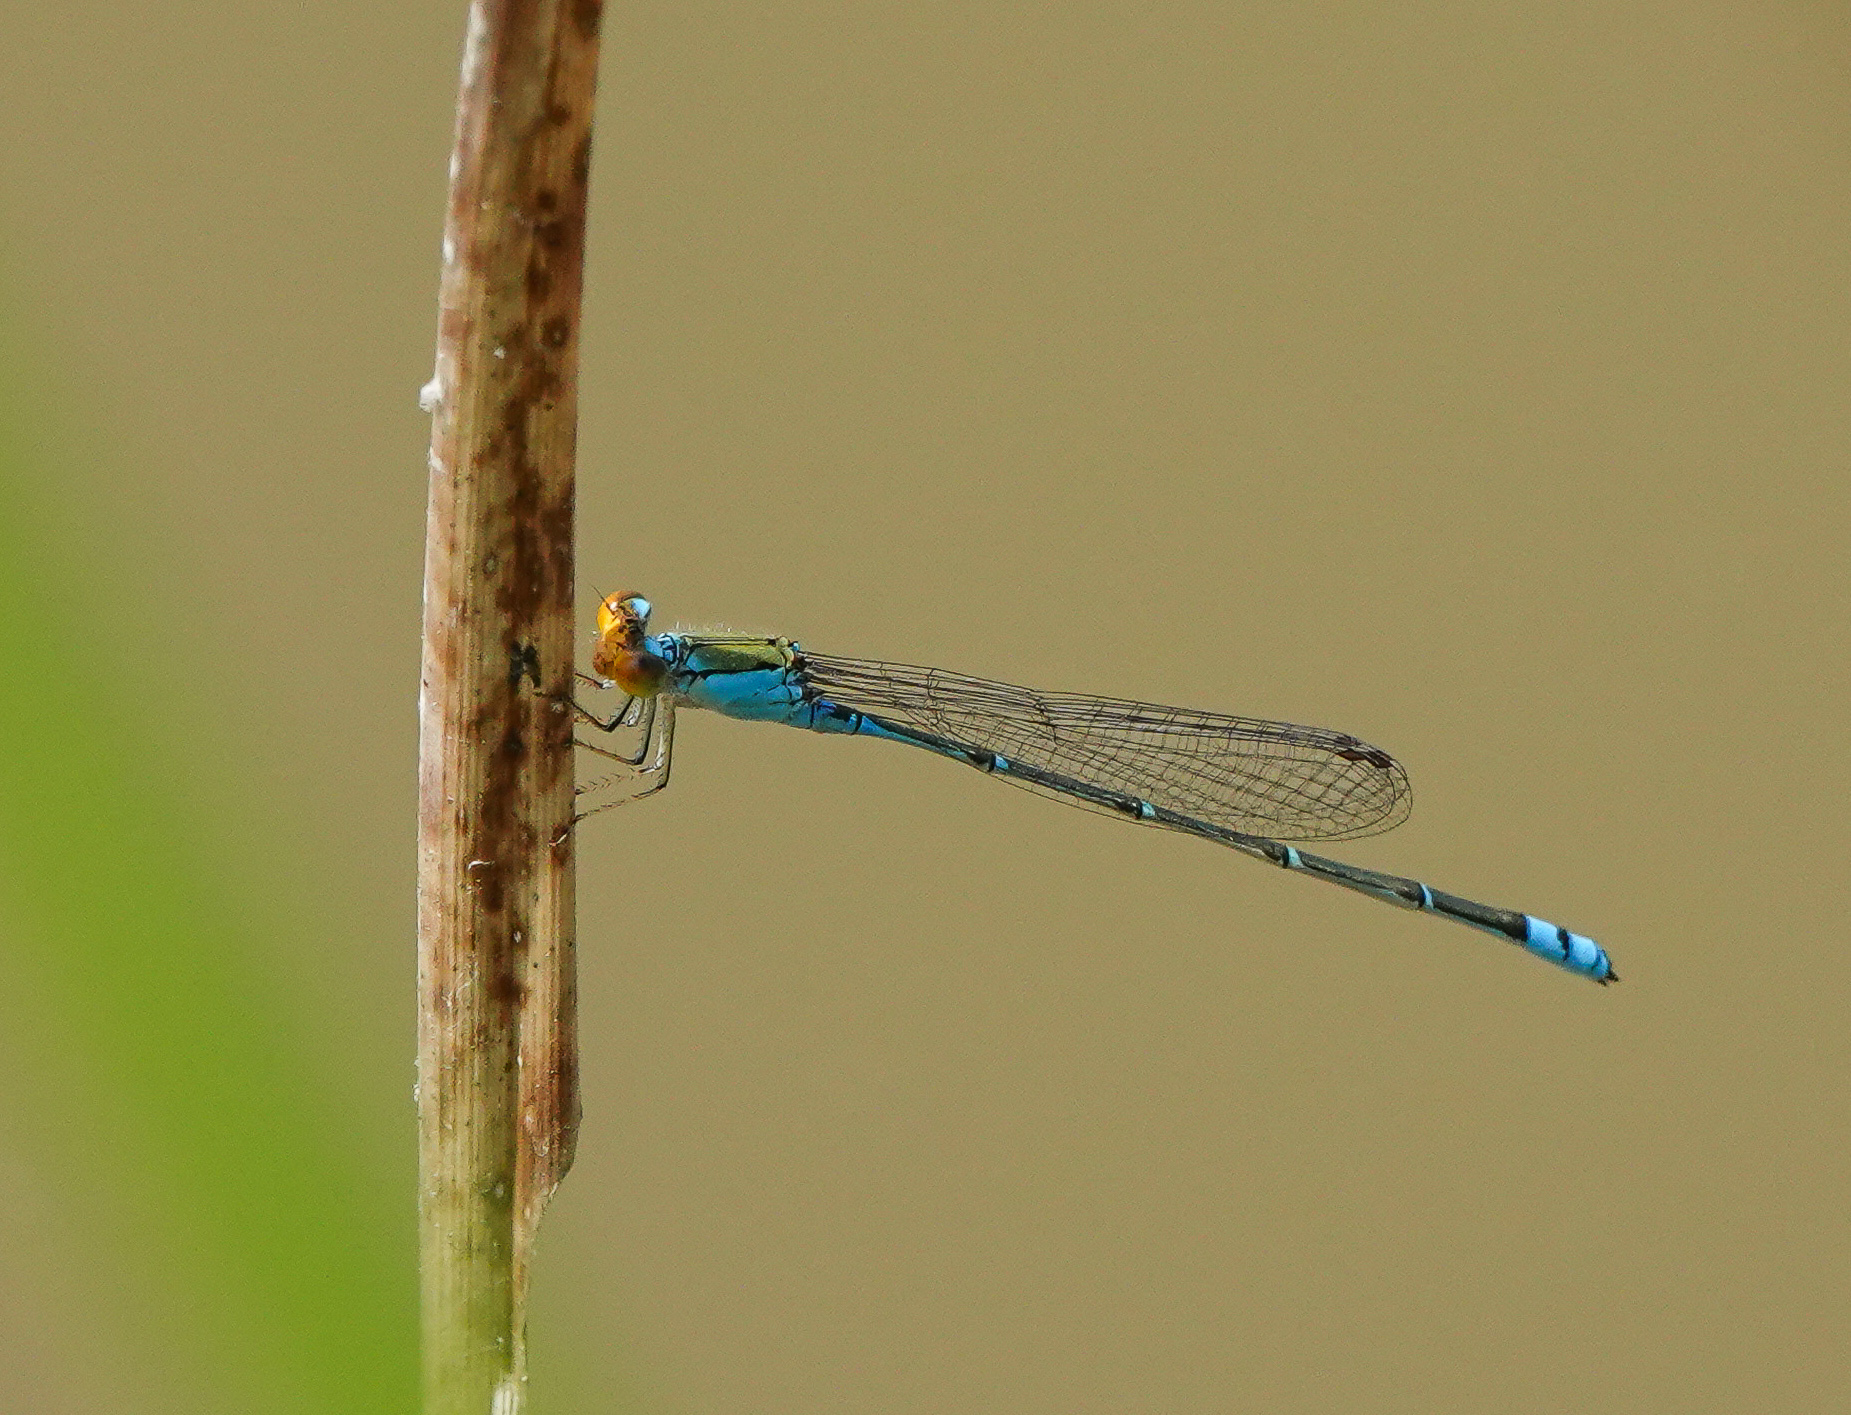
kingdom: Animalia
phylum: Arthropoda
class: Insecta
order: Odonata
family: Coenagrionidae
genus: Pseudagrion
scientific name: Pseudagrion rubriceps
